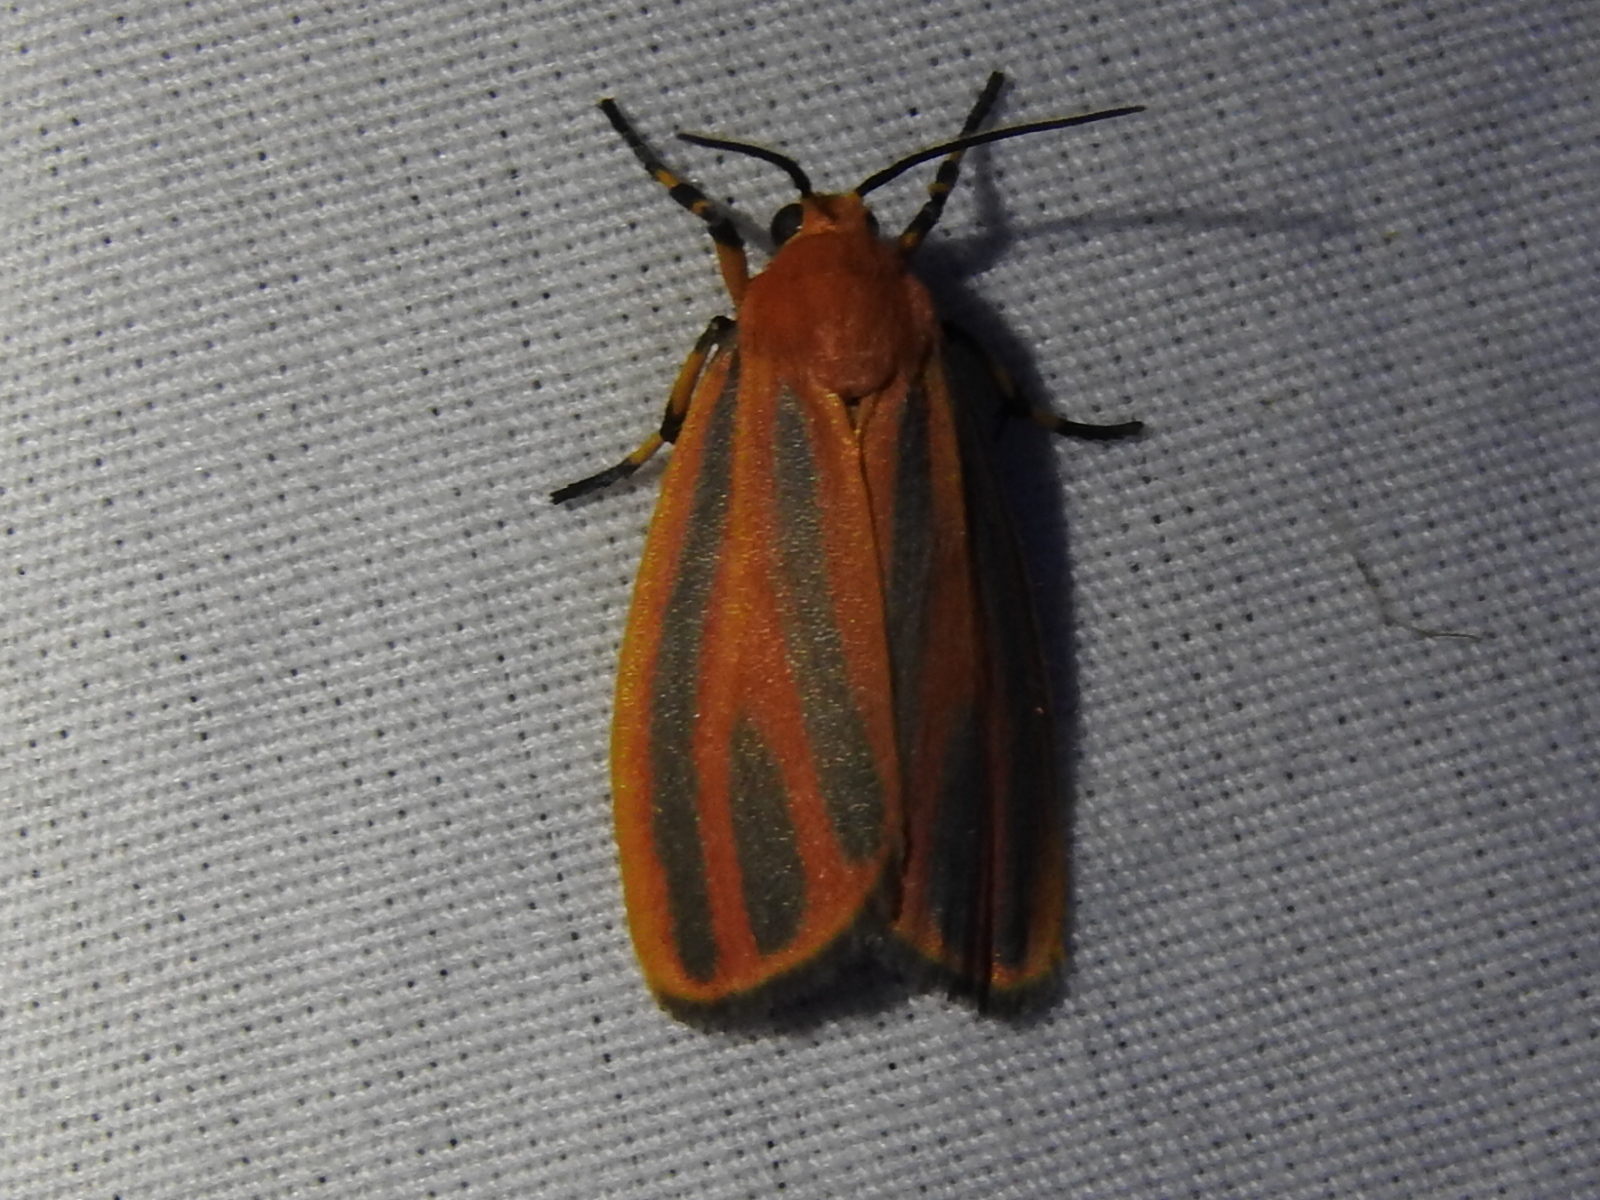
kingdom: Animalia
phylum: Arthropoda
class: Insecta
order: Lepidoptera
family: Erebidae
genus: Hypoprepia
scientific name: Hypoprepia miniata
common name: Scarlet-winged lichen moth
